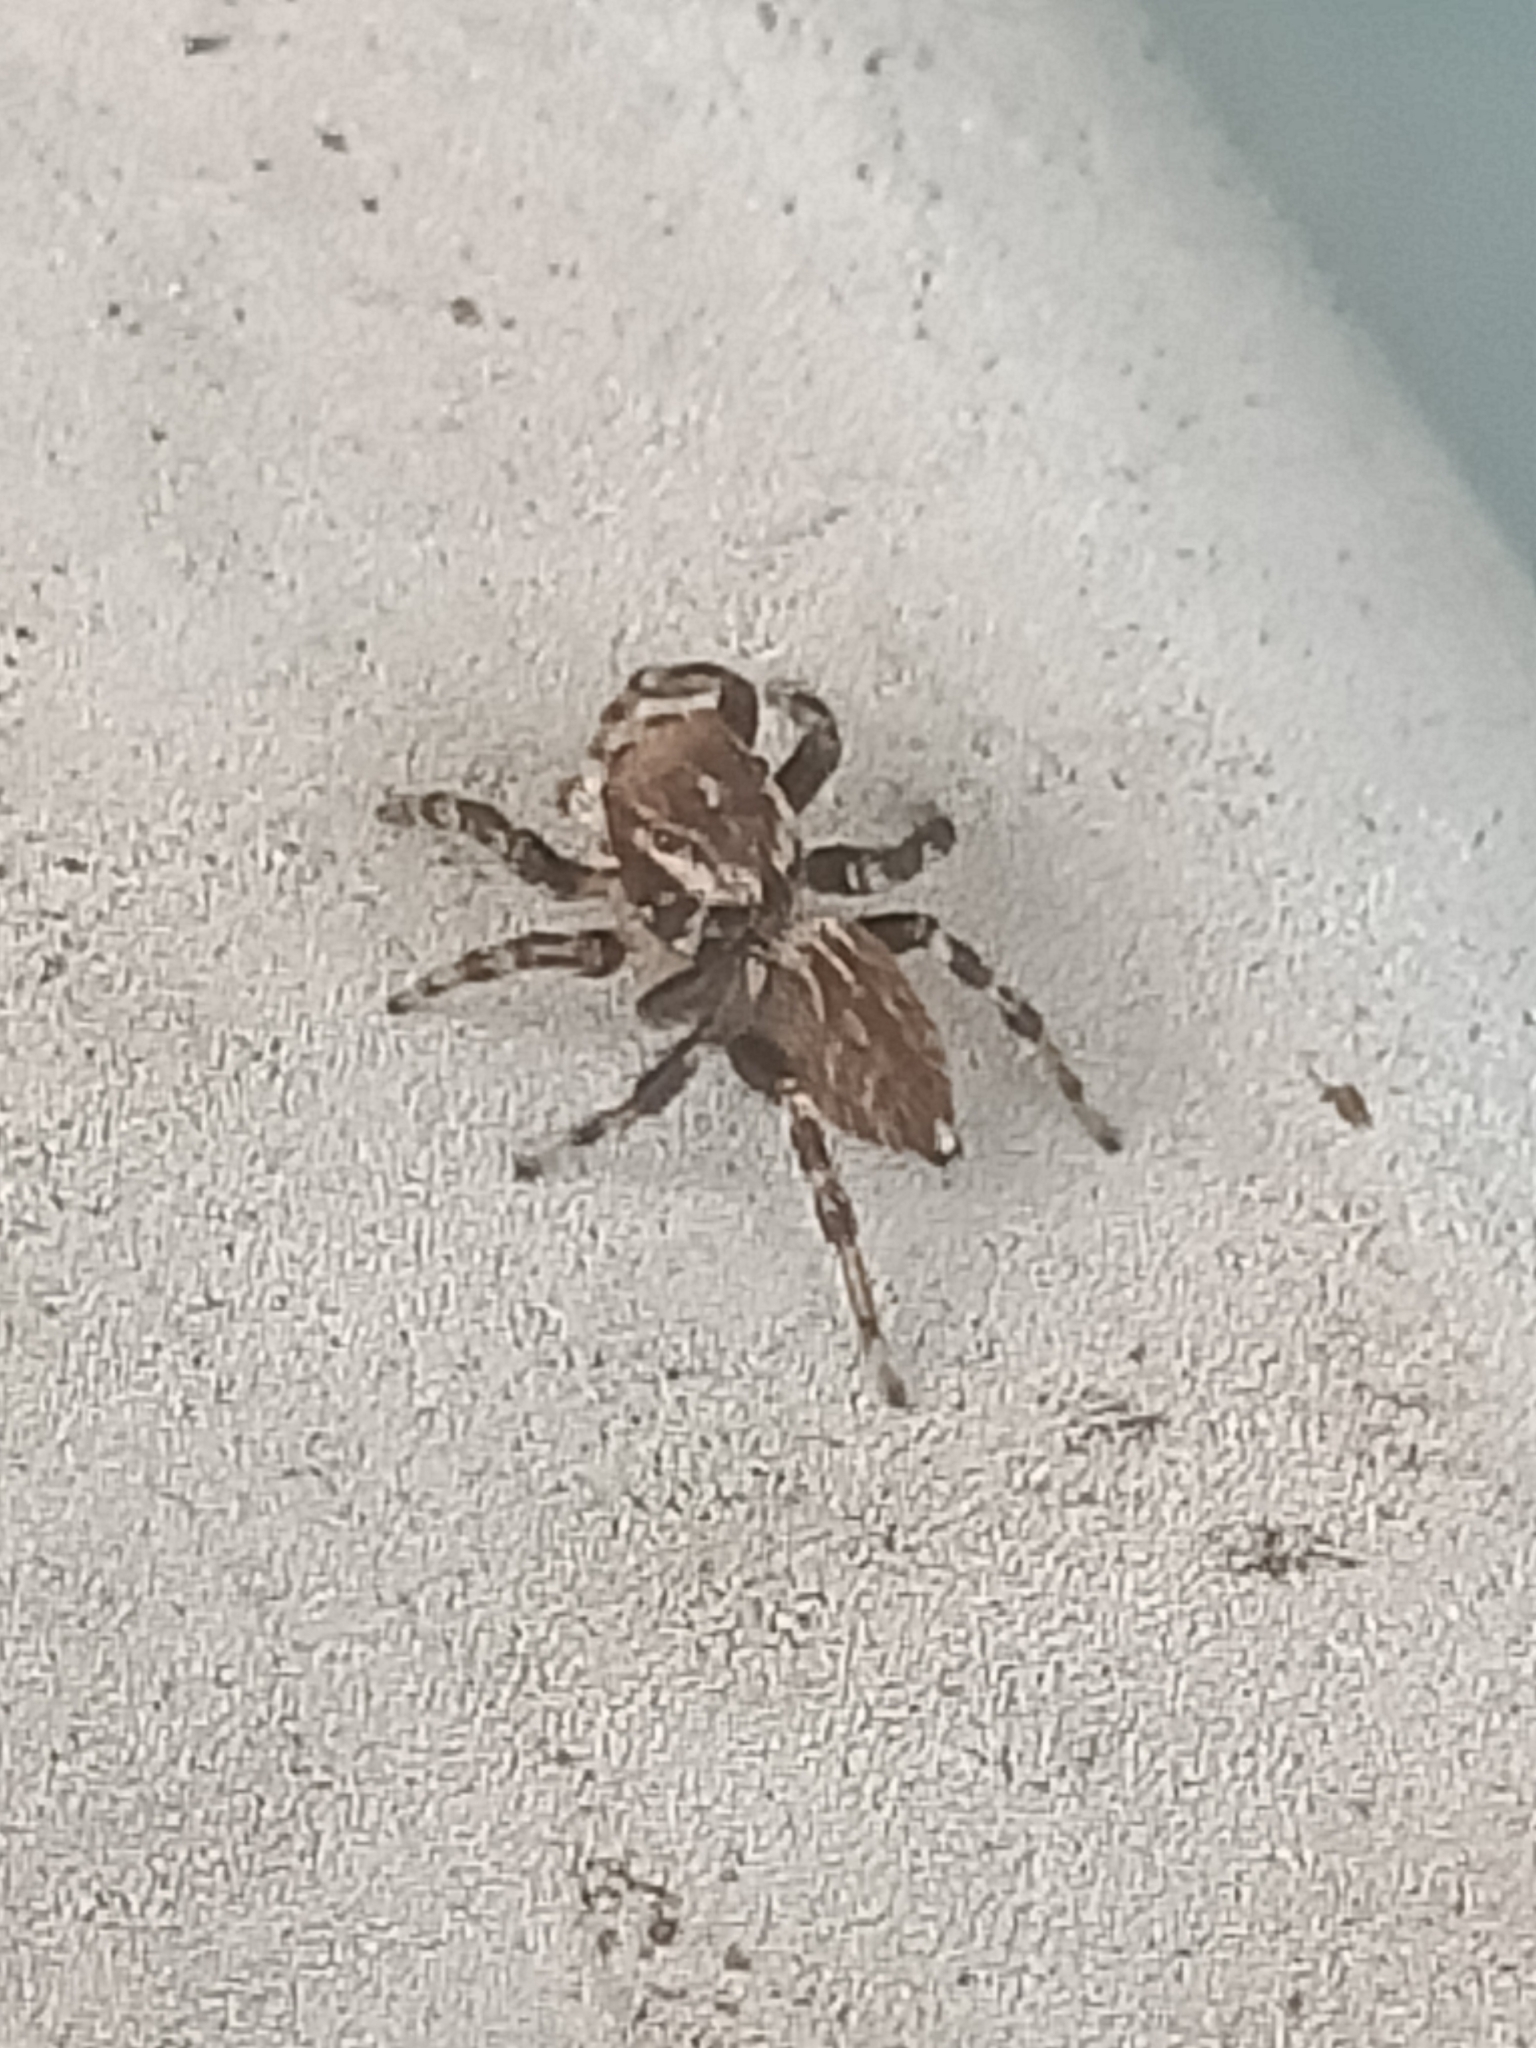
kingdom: Animalia
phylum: Arthropoda
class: Arachnida
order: Araneae
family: Salticidae
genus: Maratus
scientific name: Maratus griseus
